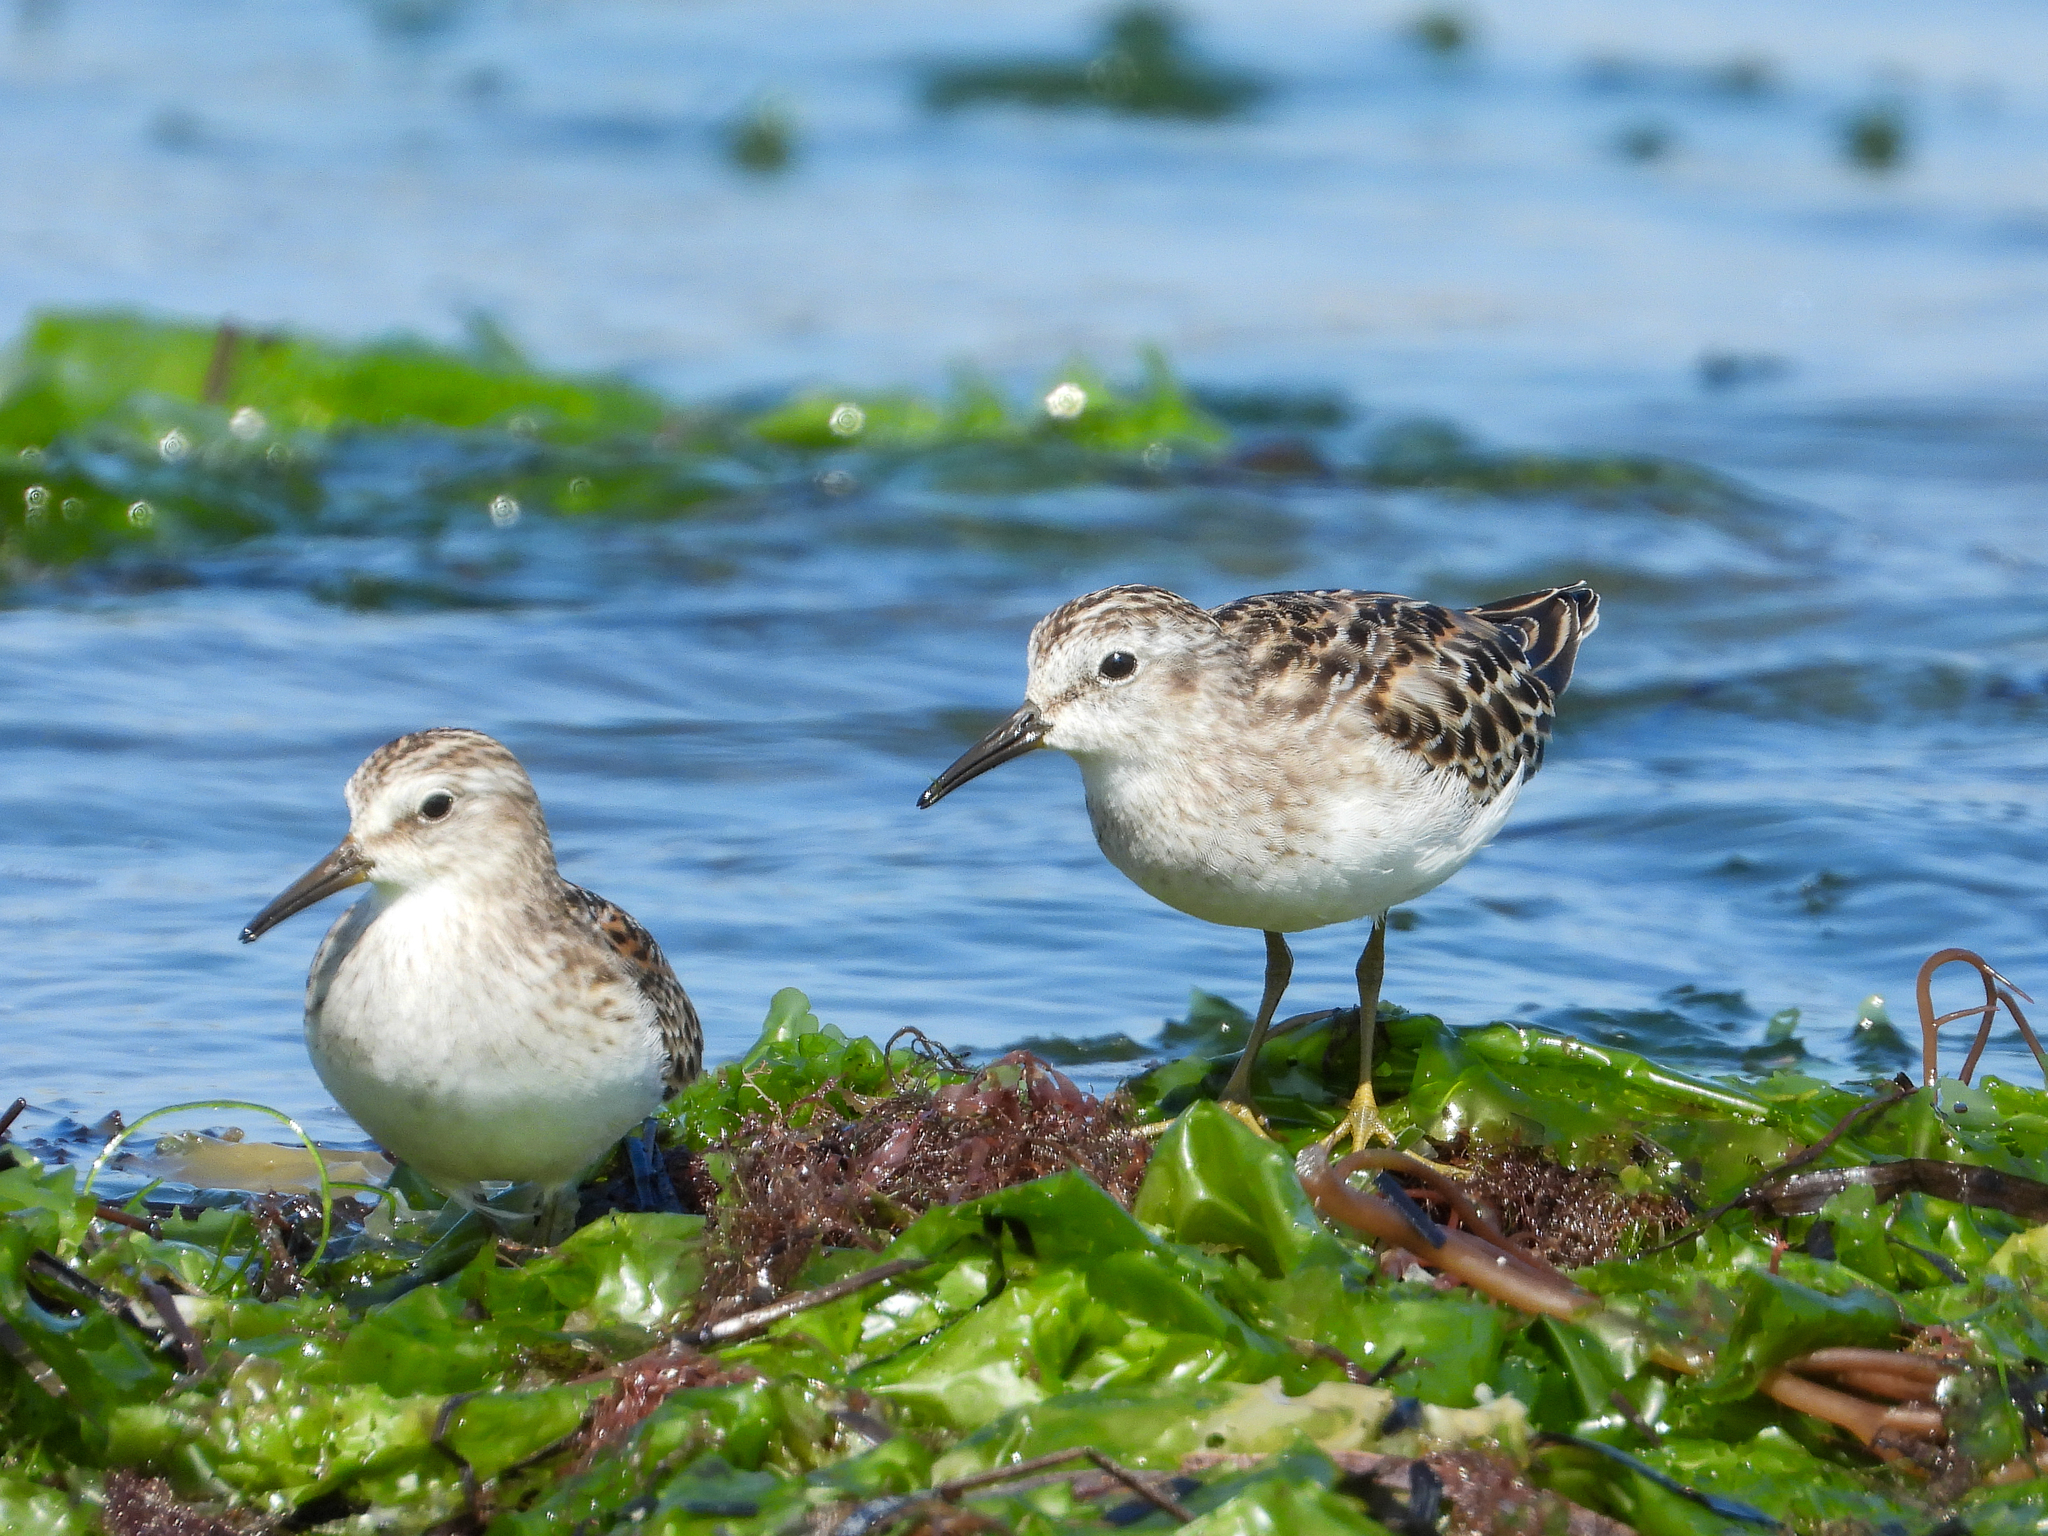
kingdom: Animalia
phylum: Chordata
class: Aves
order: Charadriiformes
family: Scolopacidae
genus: Calidris
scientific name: Calidris minutilla
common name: Least sandpiper
